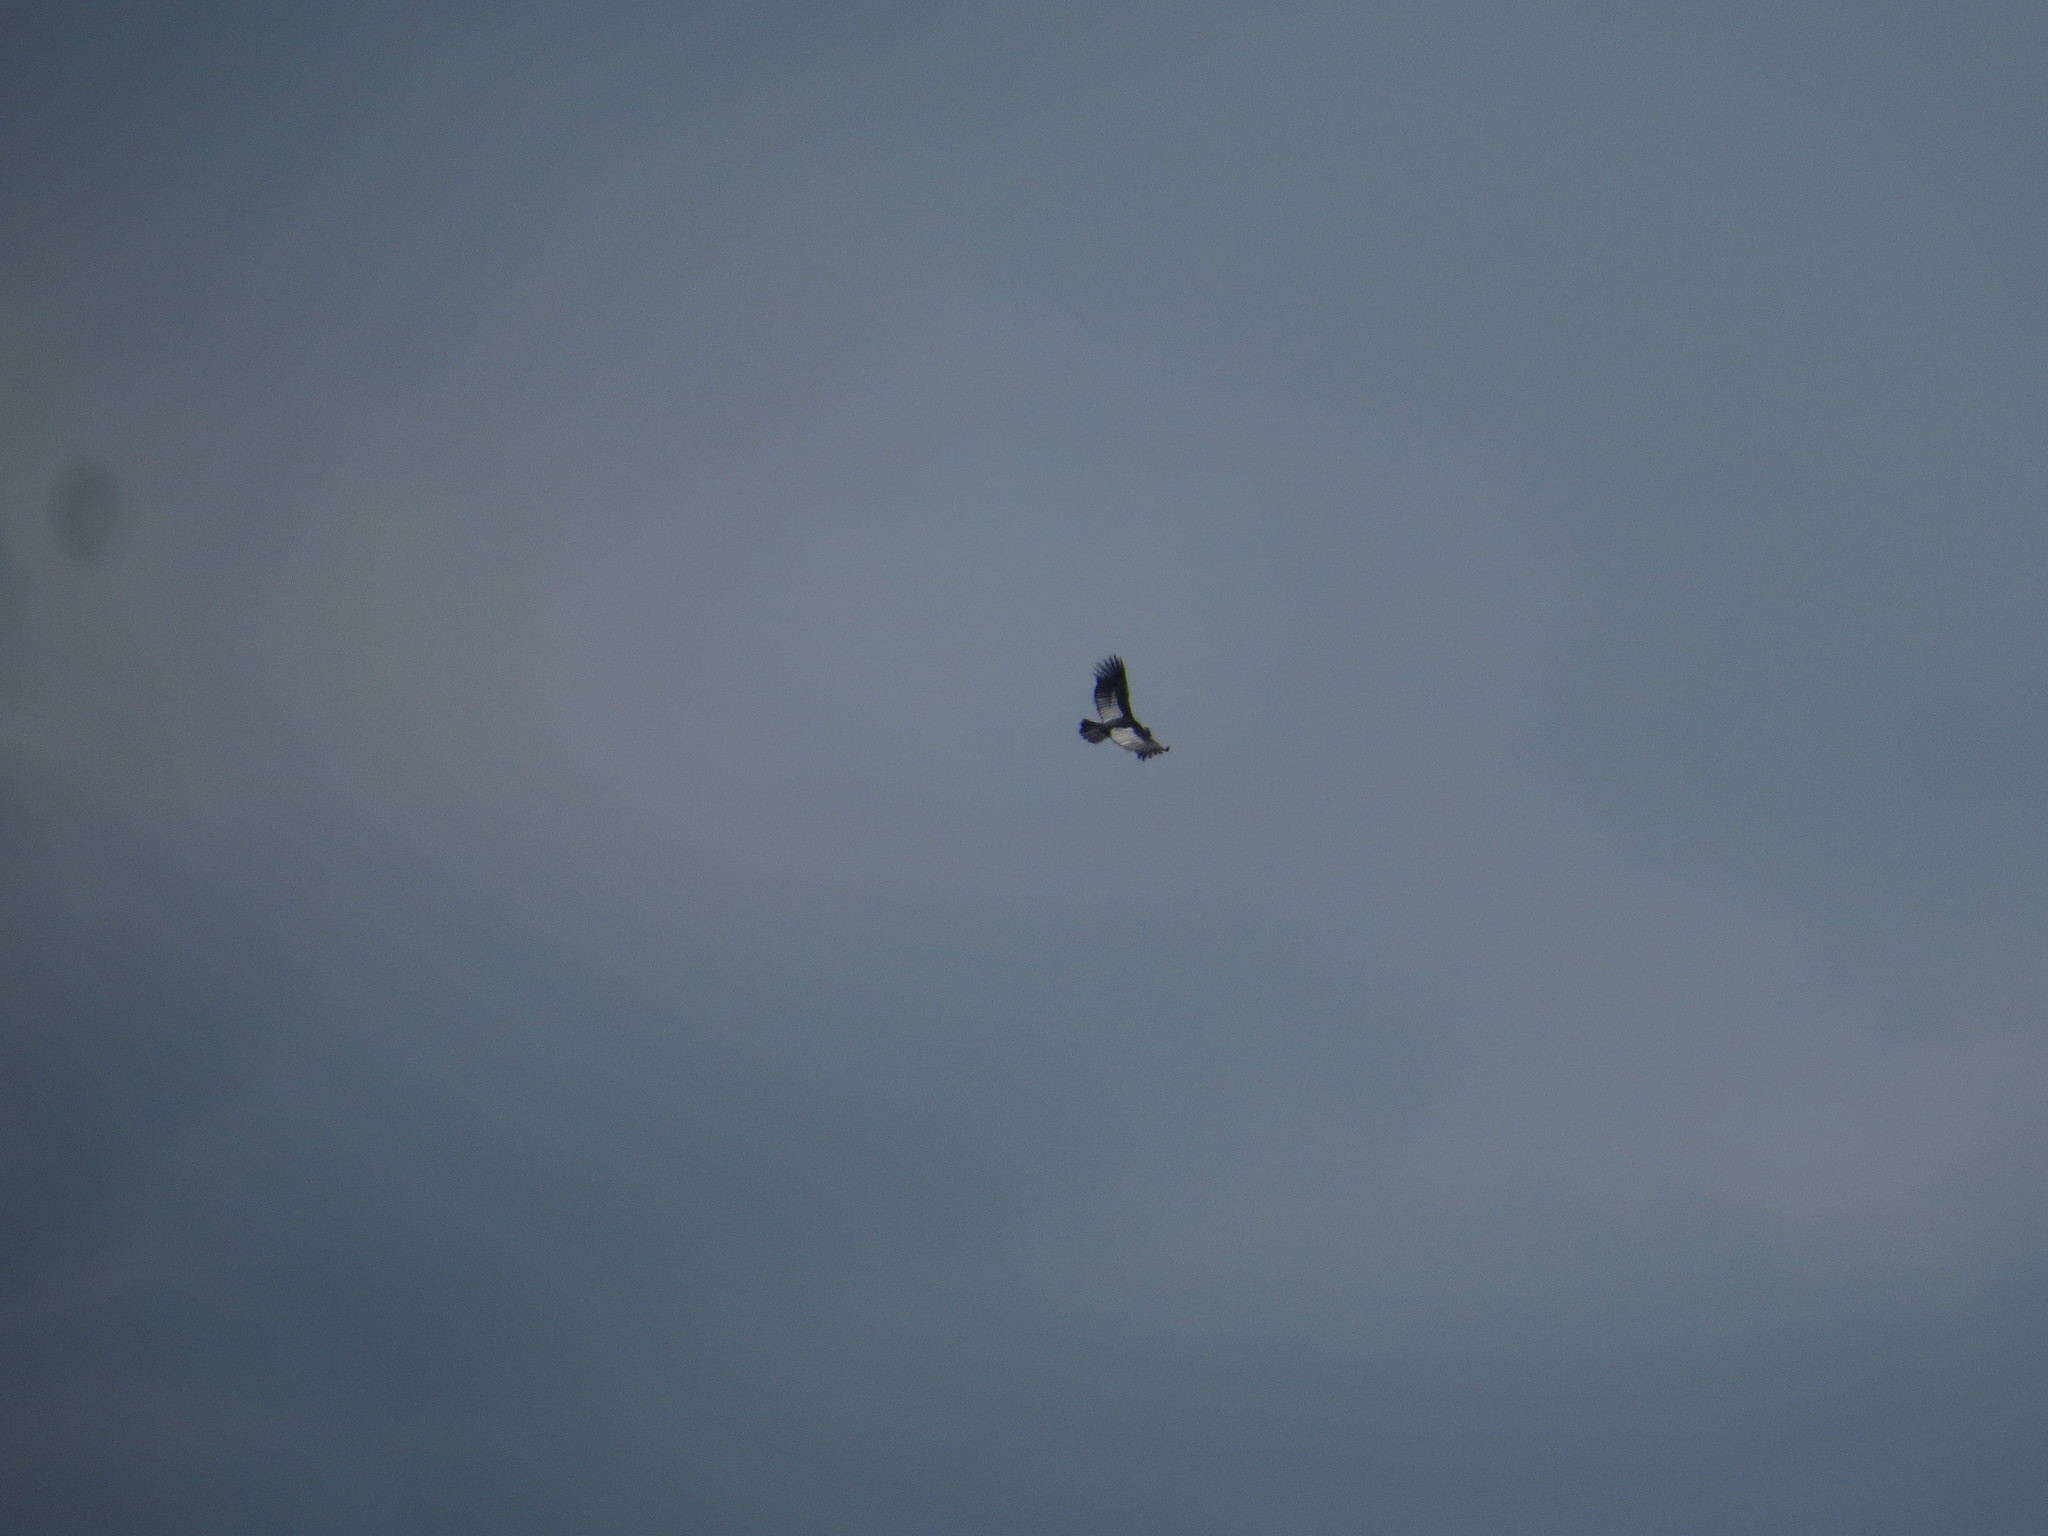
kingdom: Animalia
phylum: Chordata
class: Aves
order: Accipitriformes
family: Cathartidae
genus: Vultur
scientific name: Vultur gryphus
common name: Andean condor
